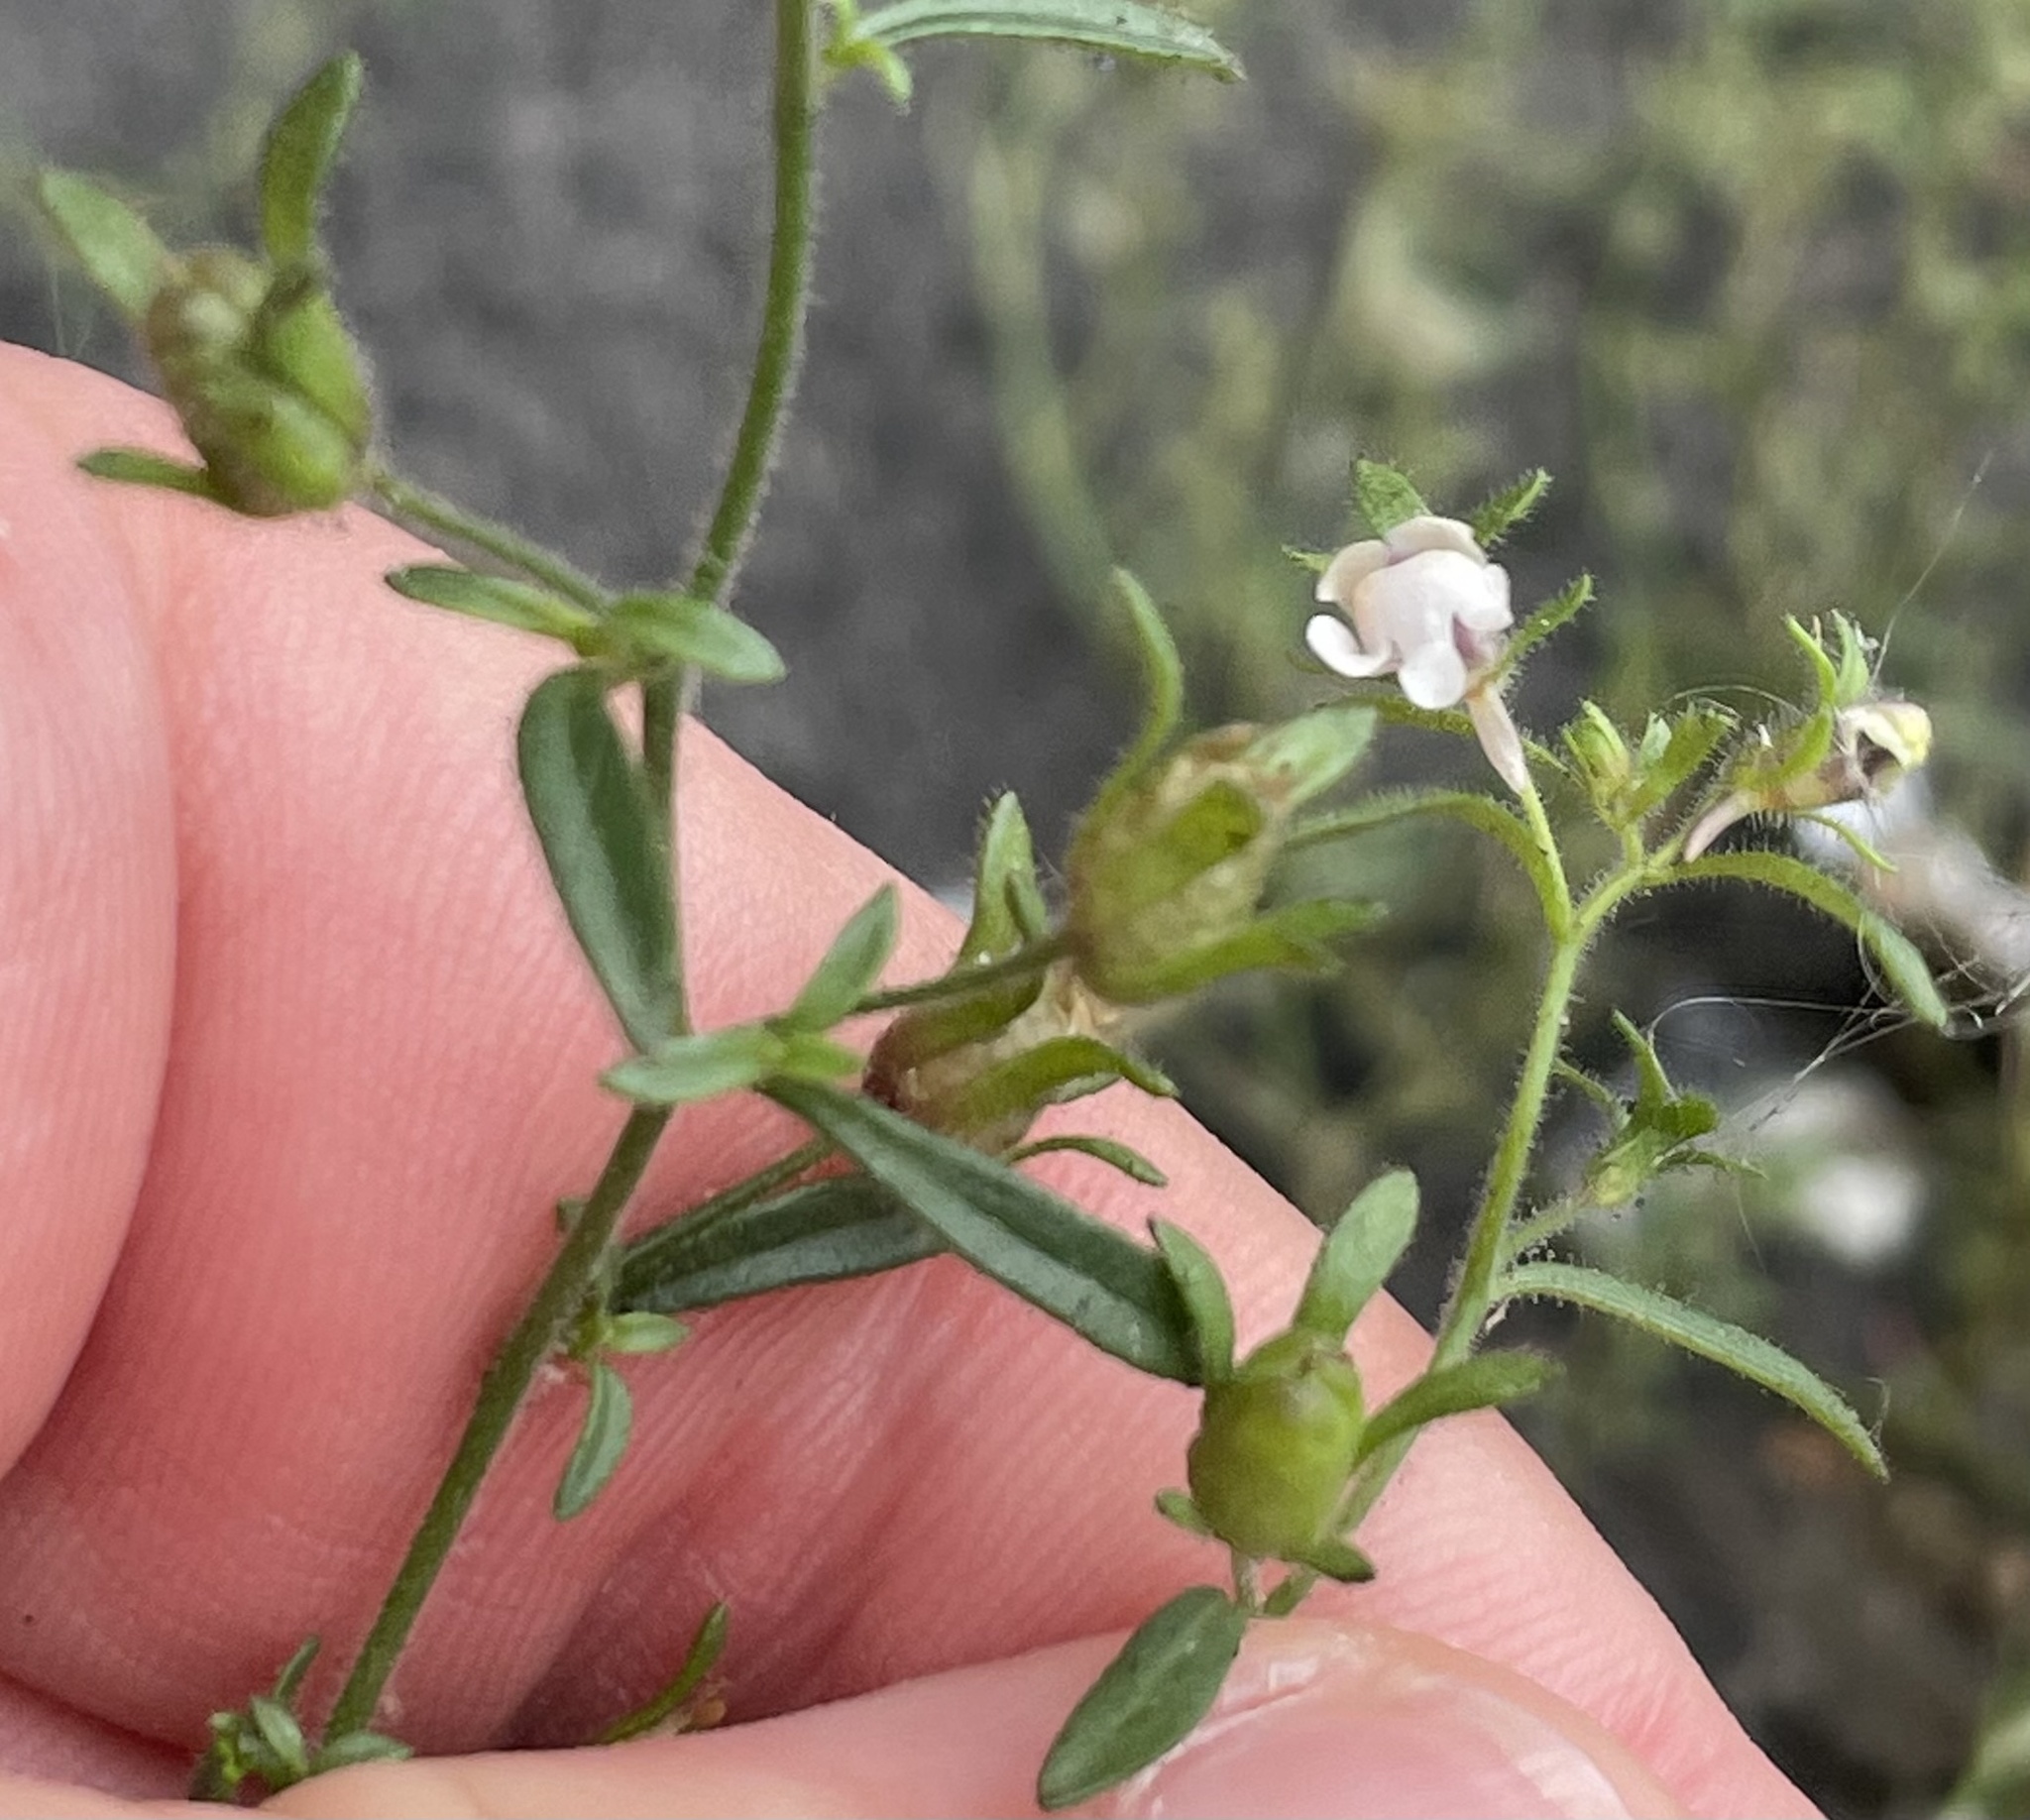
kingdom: Plantae
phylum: Tracheophyta
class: Magnoliopsida
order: Lamiales
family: Plantaginaceae
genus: Chaenorhinum
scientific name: Chaenorhinum minus
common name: Dwarf snapdragon
